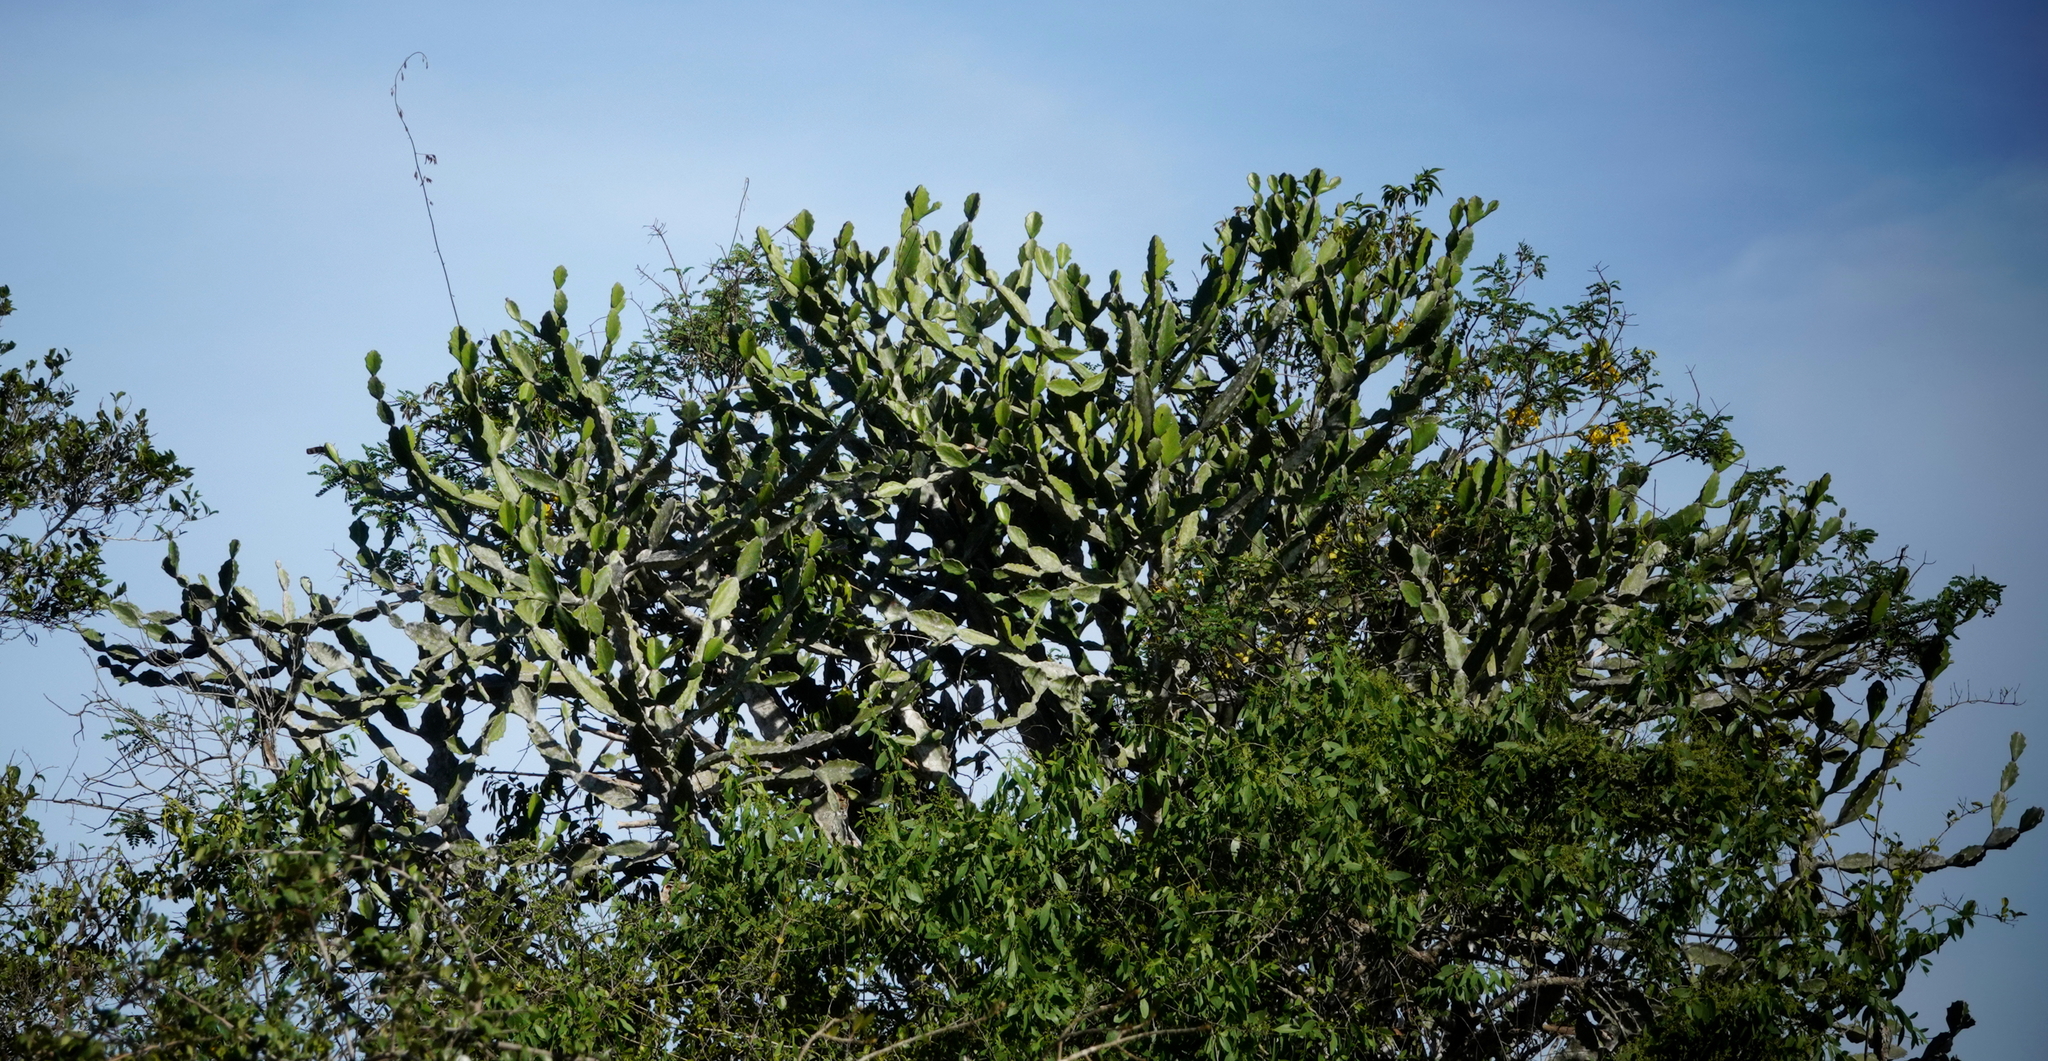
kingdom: Plantae
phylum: Tracheophyta
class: Magnoliopsida
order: Malpighiales
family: Euphorbiaceae
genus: Euphorbia
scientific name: Euphorbia antiquorum
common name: Malayan spurge tree
